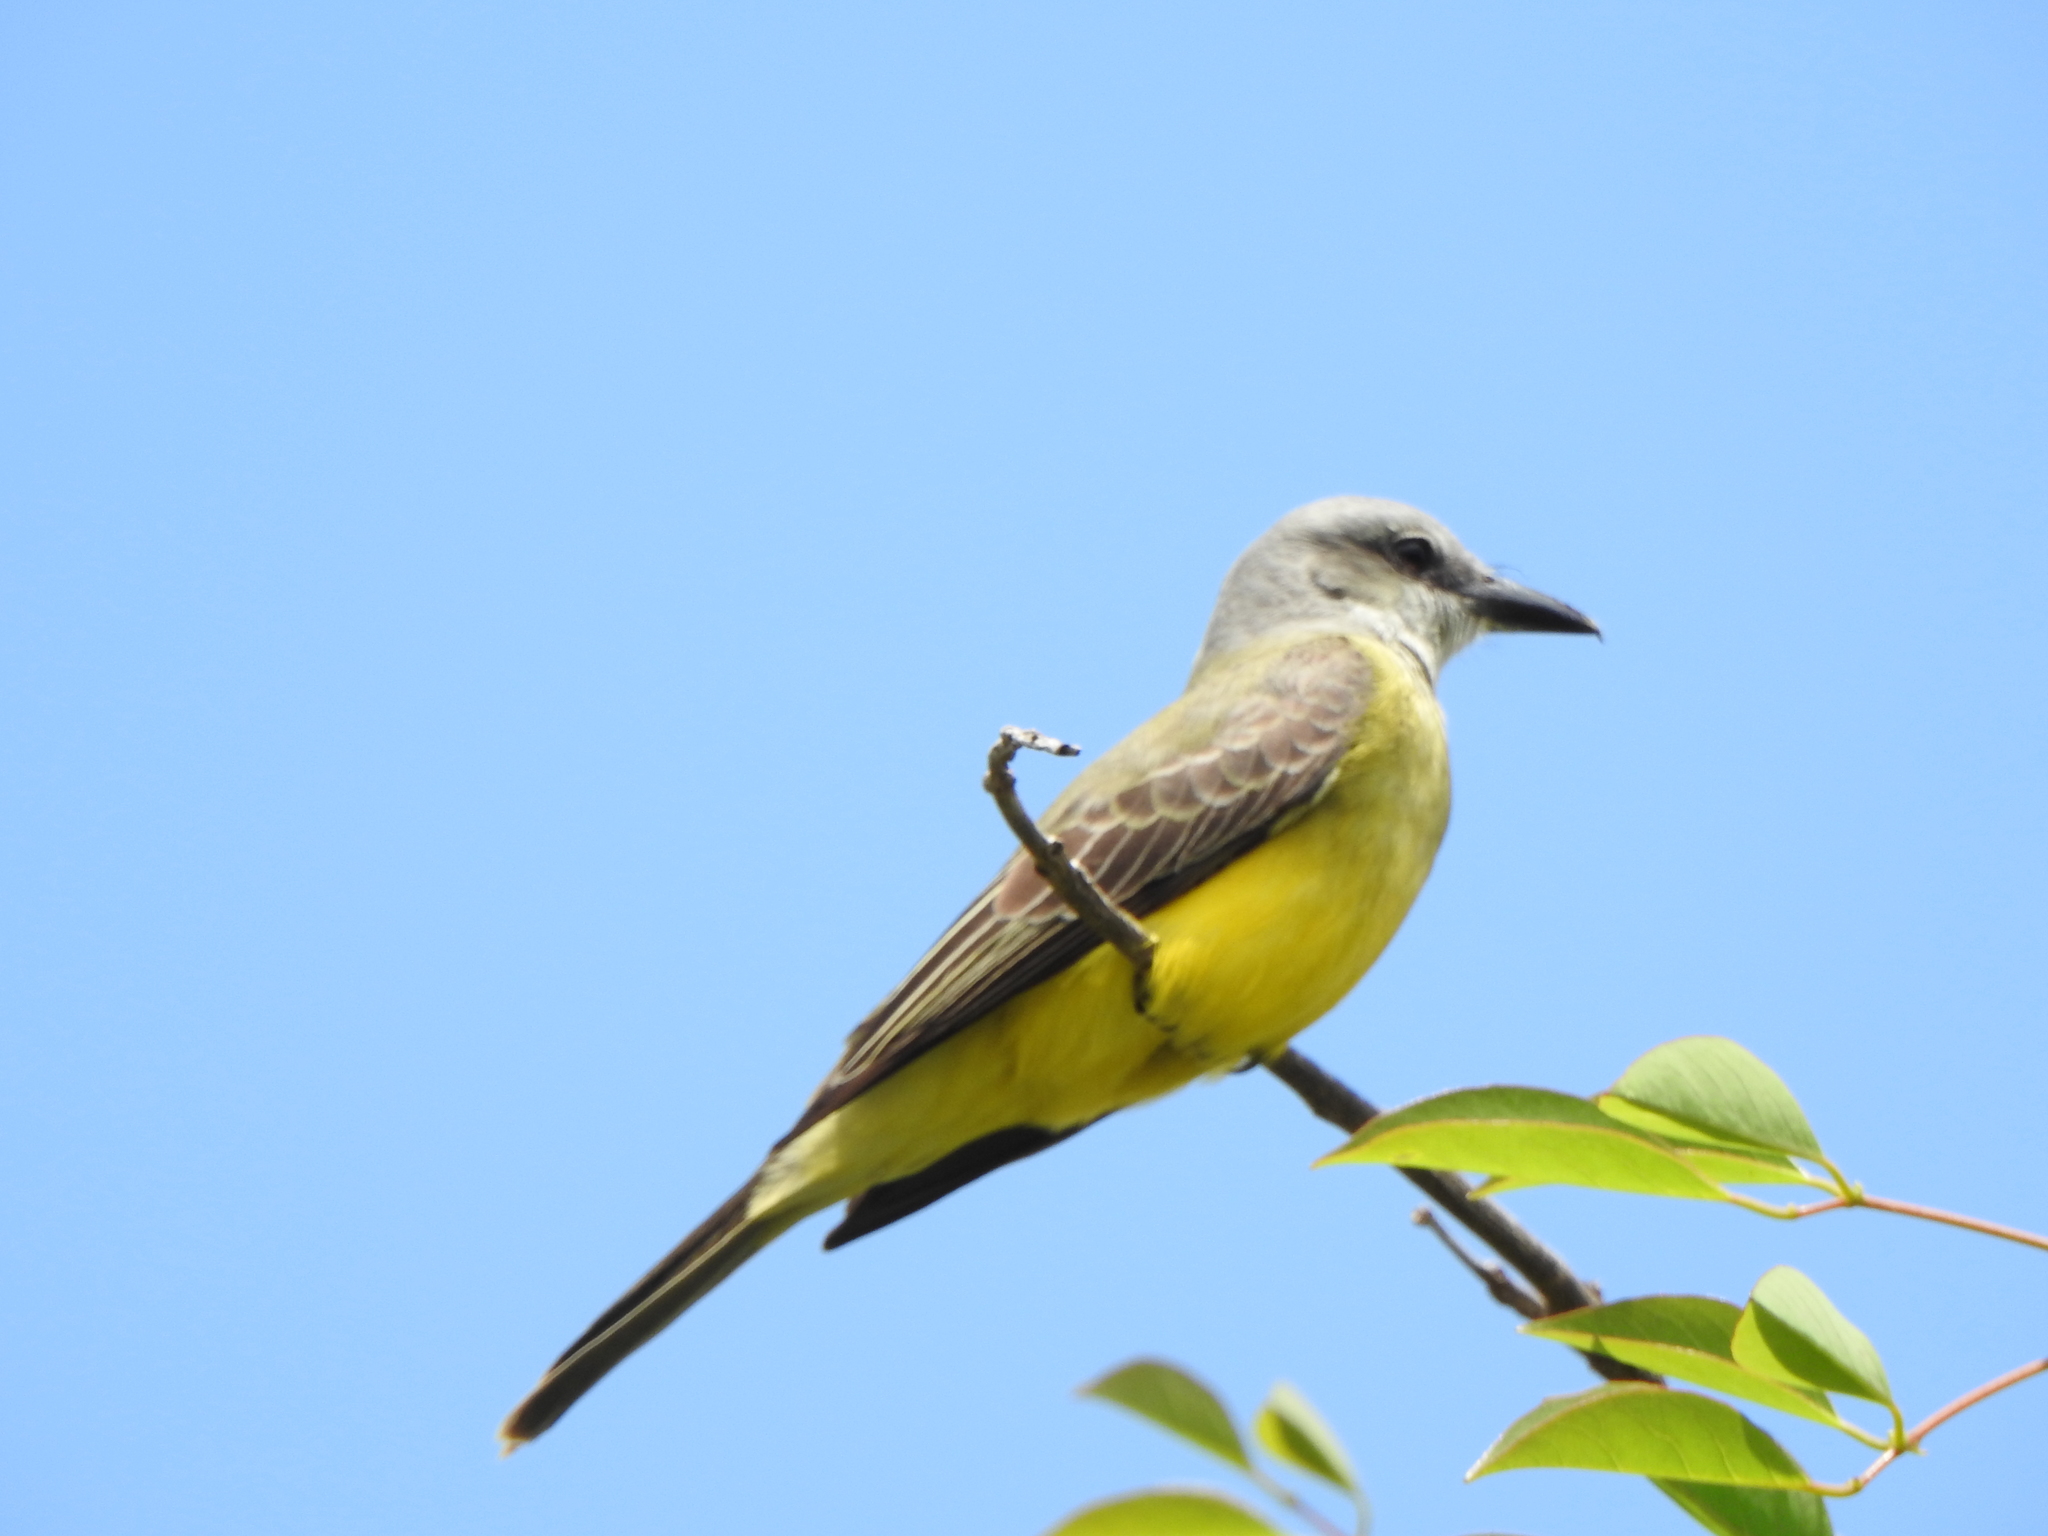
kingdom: Animalia
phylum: Chordata
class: Aves
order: Passeriformes
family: Tyrannidae
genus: Tyrannus
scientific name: Tyrannus melancholicus
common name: Tropical kingbird
